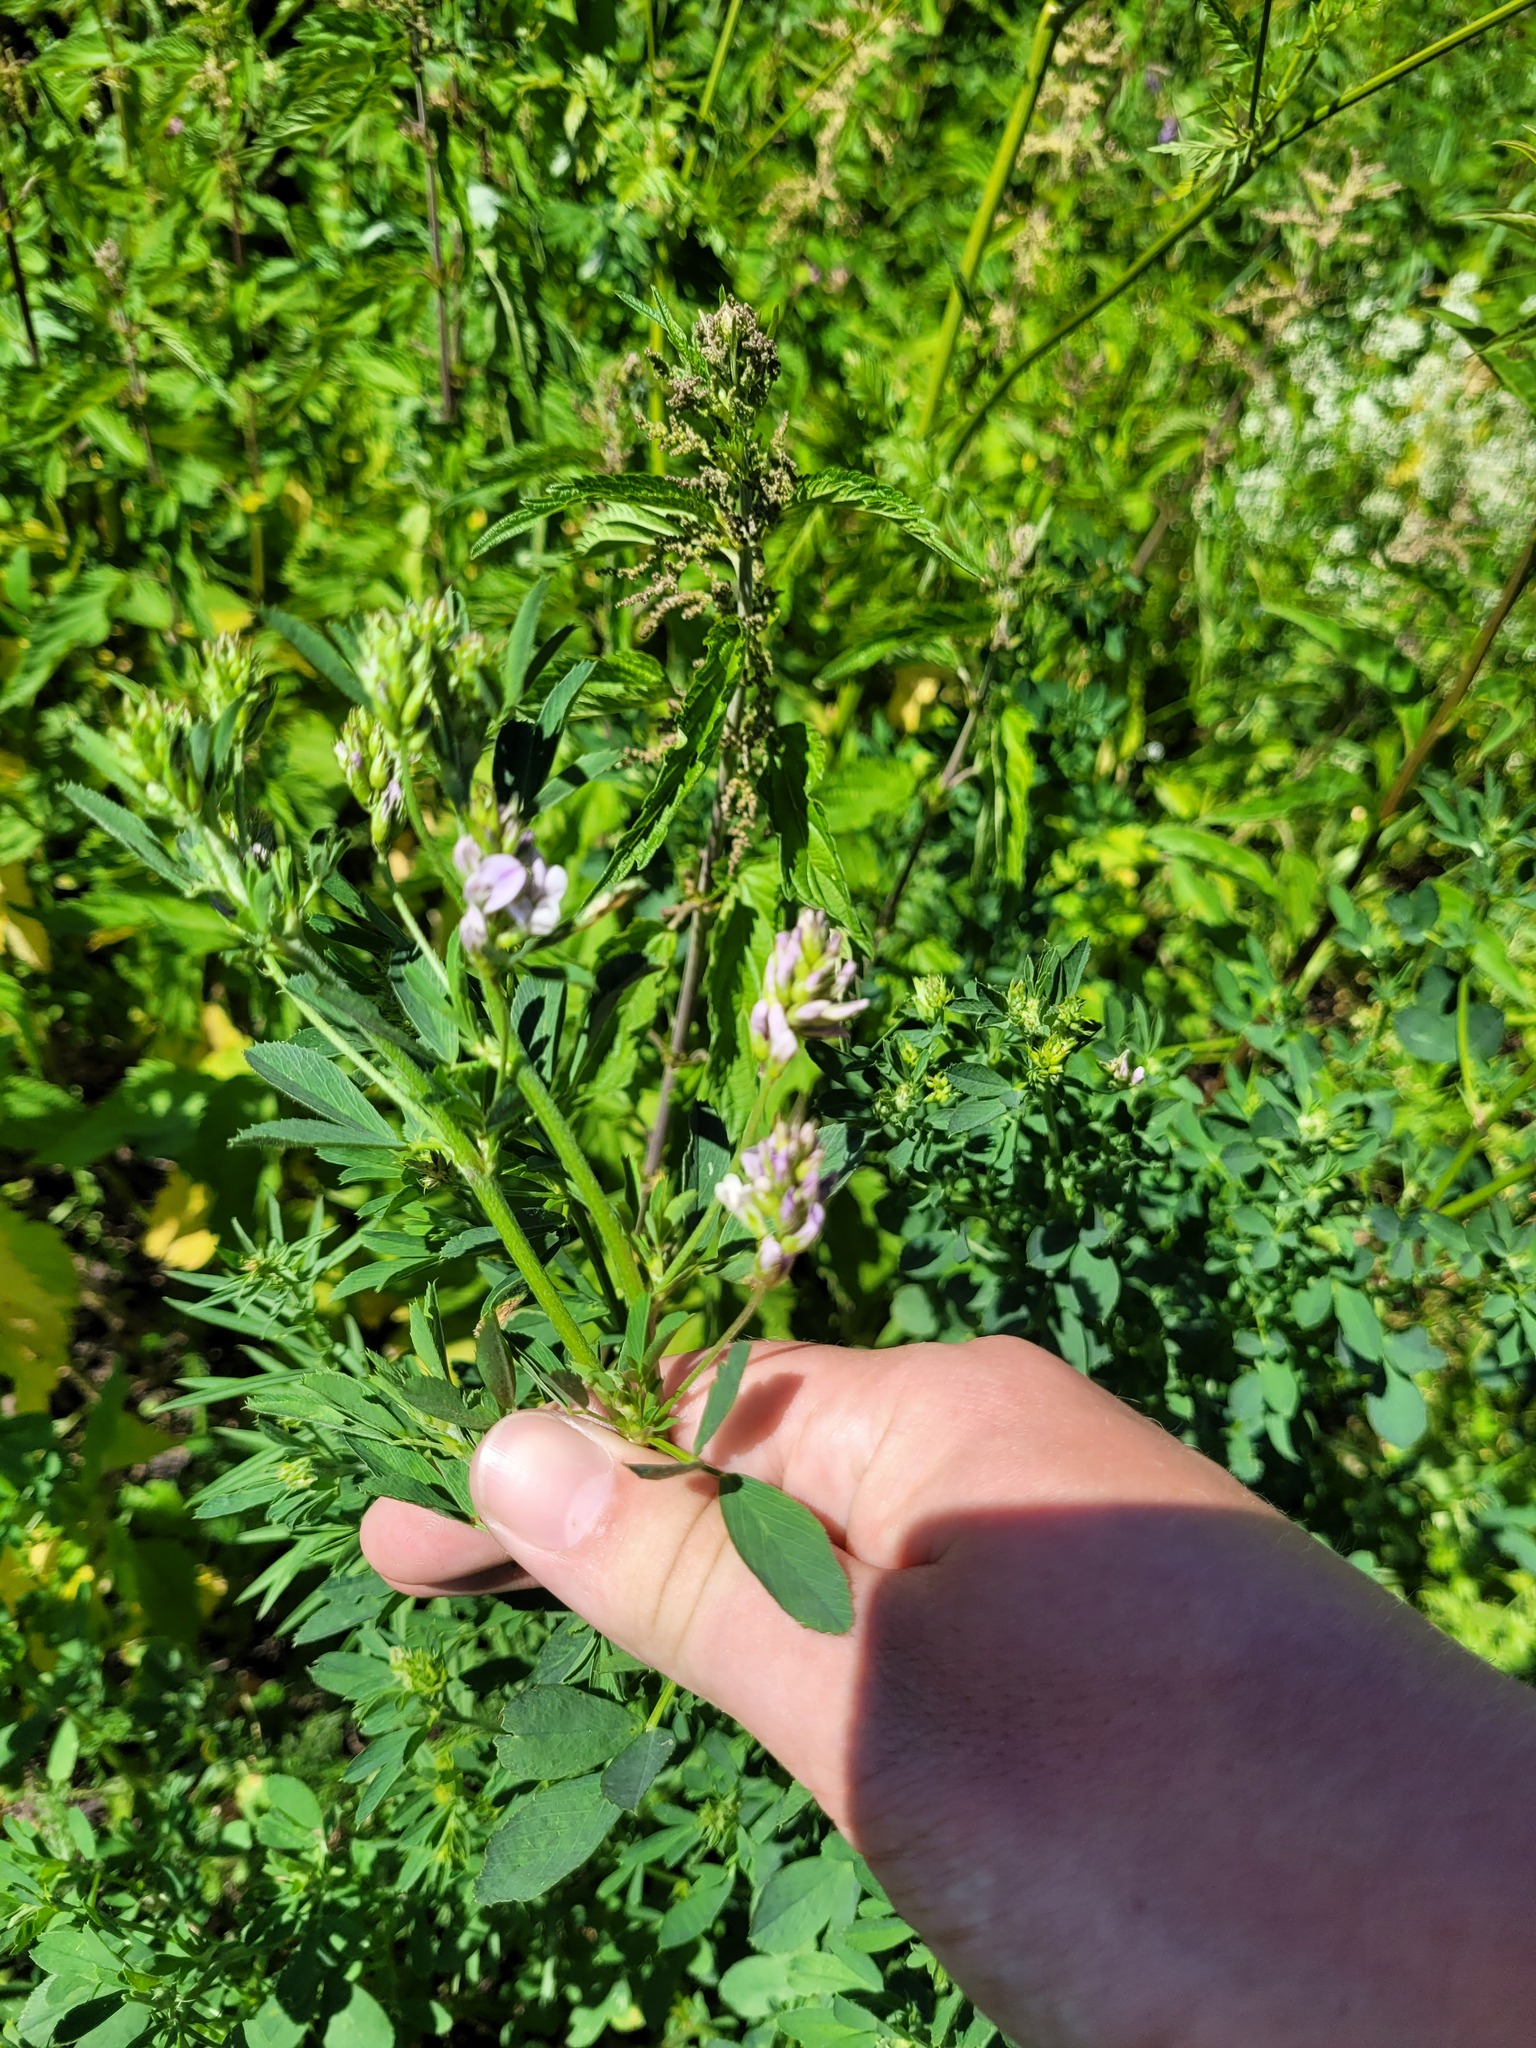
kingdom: Plantae
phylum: Tracheophyta
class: Magnoliopsida
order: Fabales
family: Fabaceae
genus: Medicago
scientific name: Medicago varia
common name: Sand lucerne
